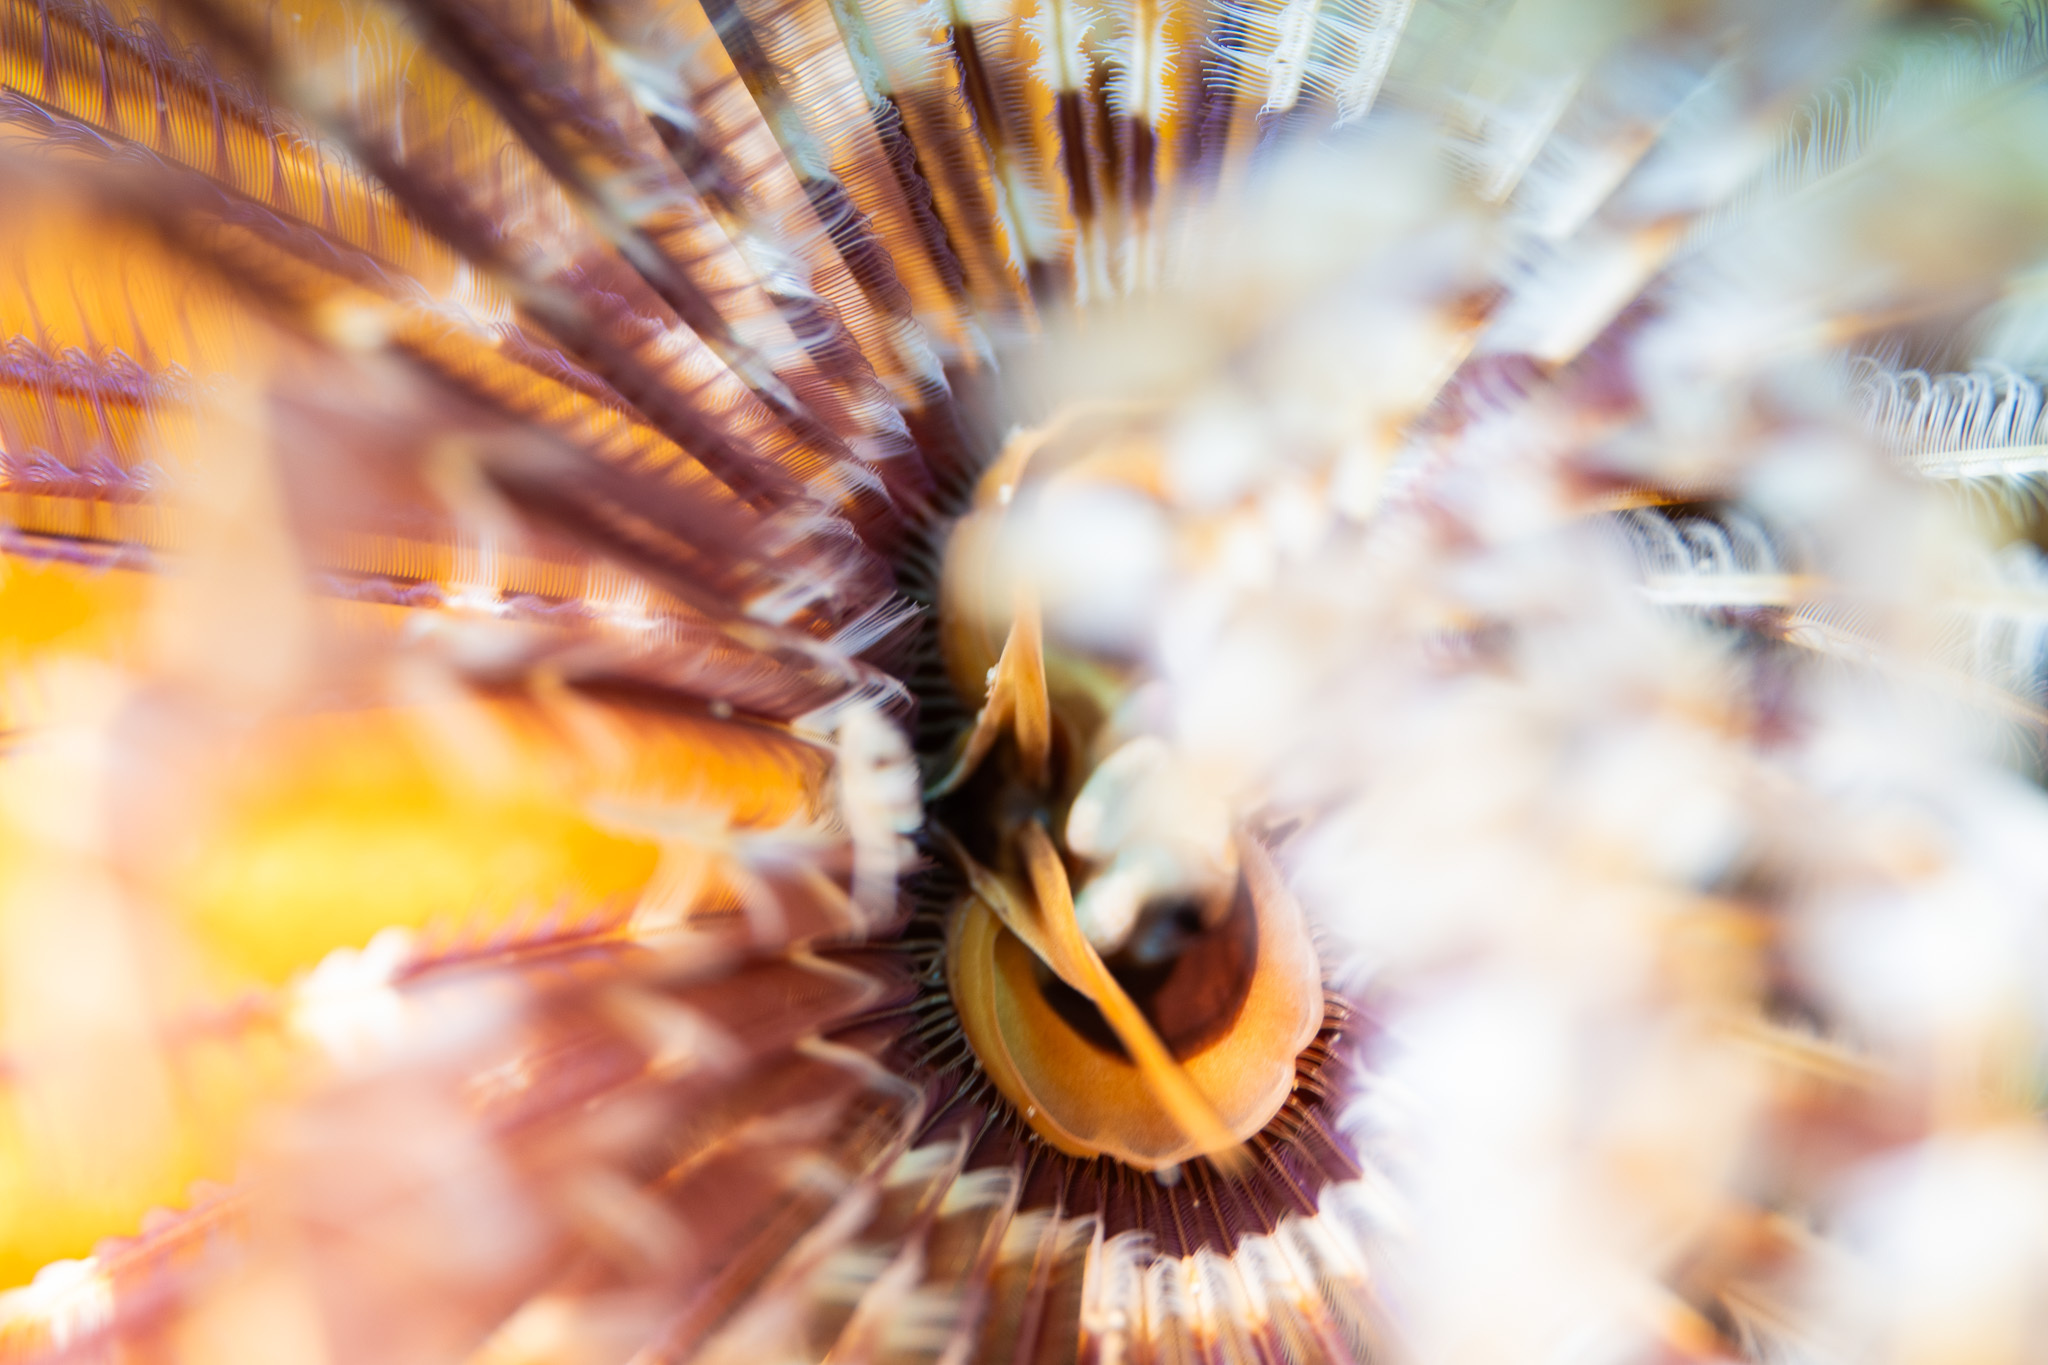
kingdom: Animalia
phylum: Annelida
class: Polychaeta
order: Sabellida
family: Sabellidae
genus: Sabellastarte
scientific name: Sabellastarte magnifica
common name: Giant feather-duster worm
